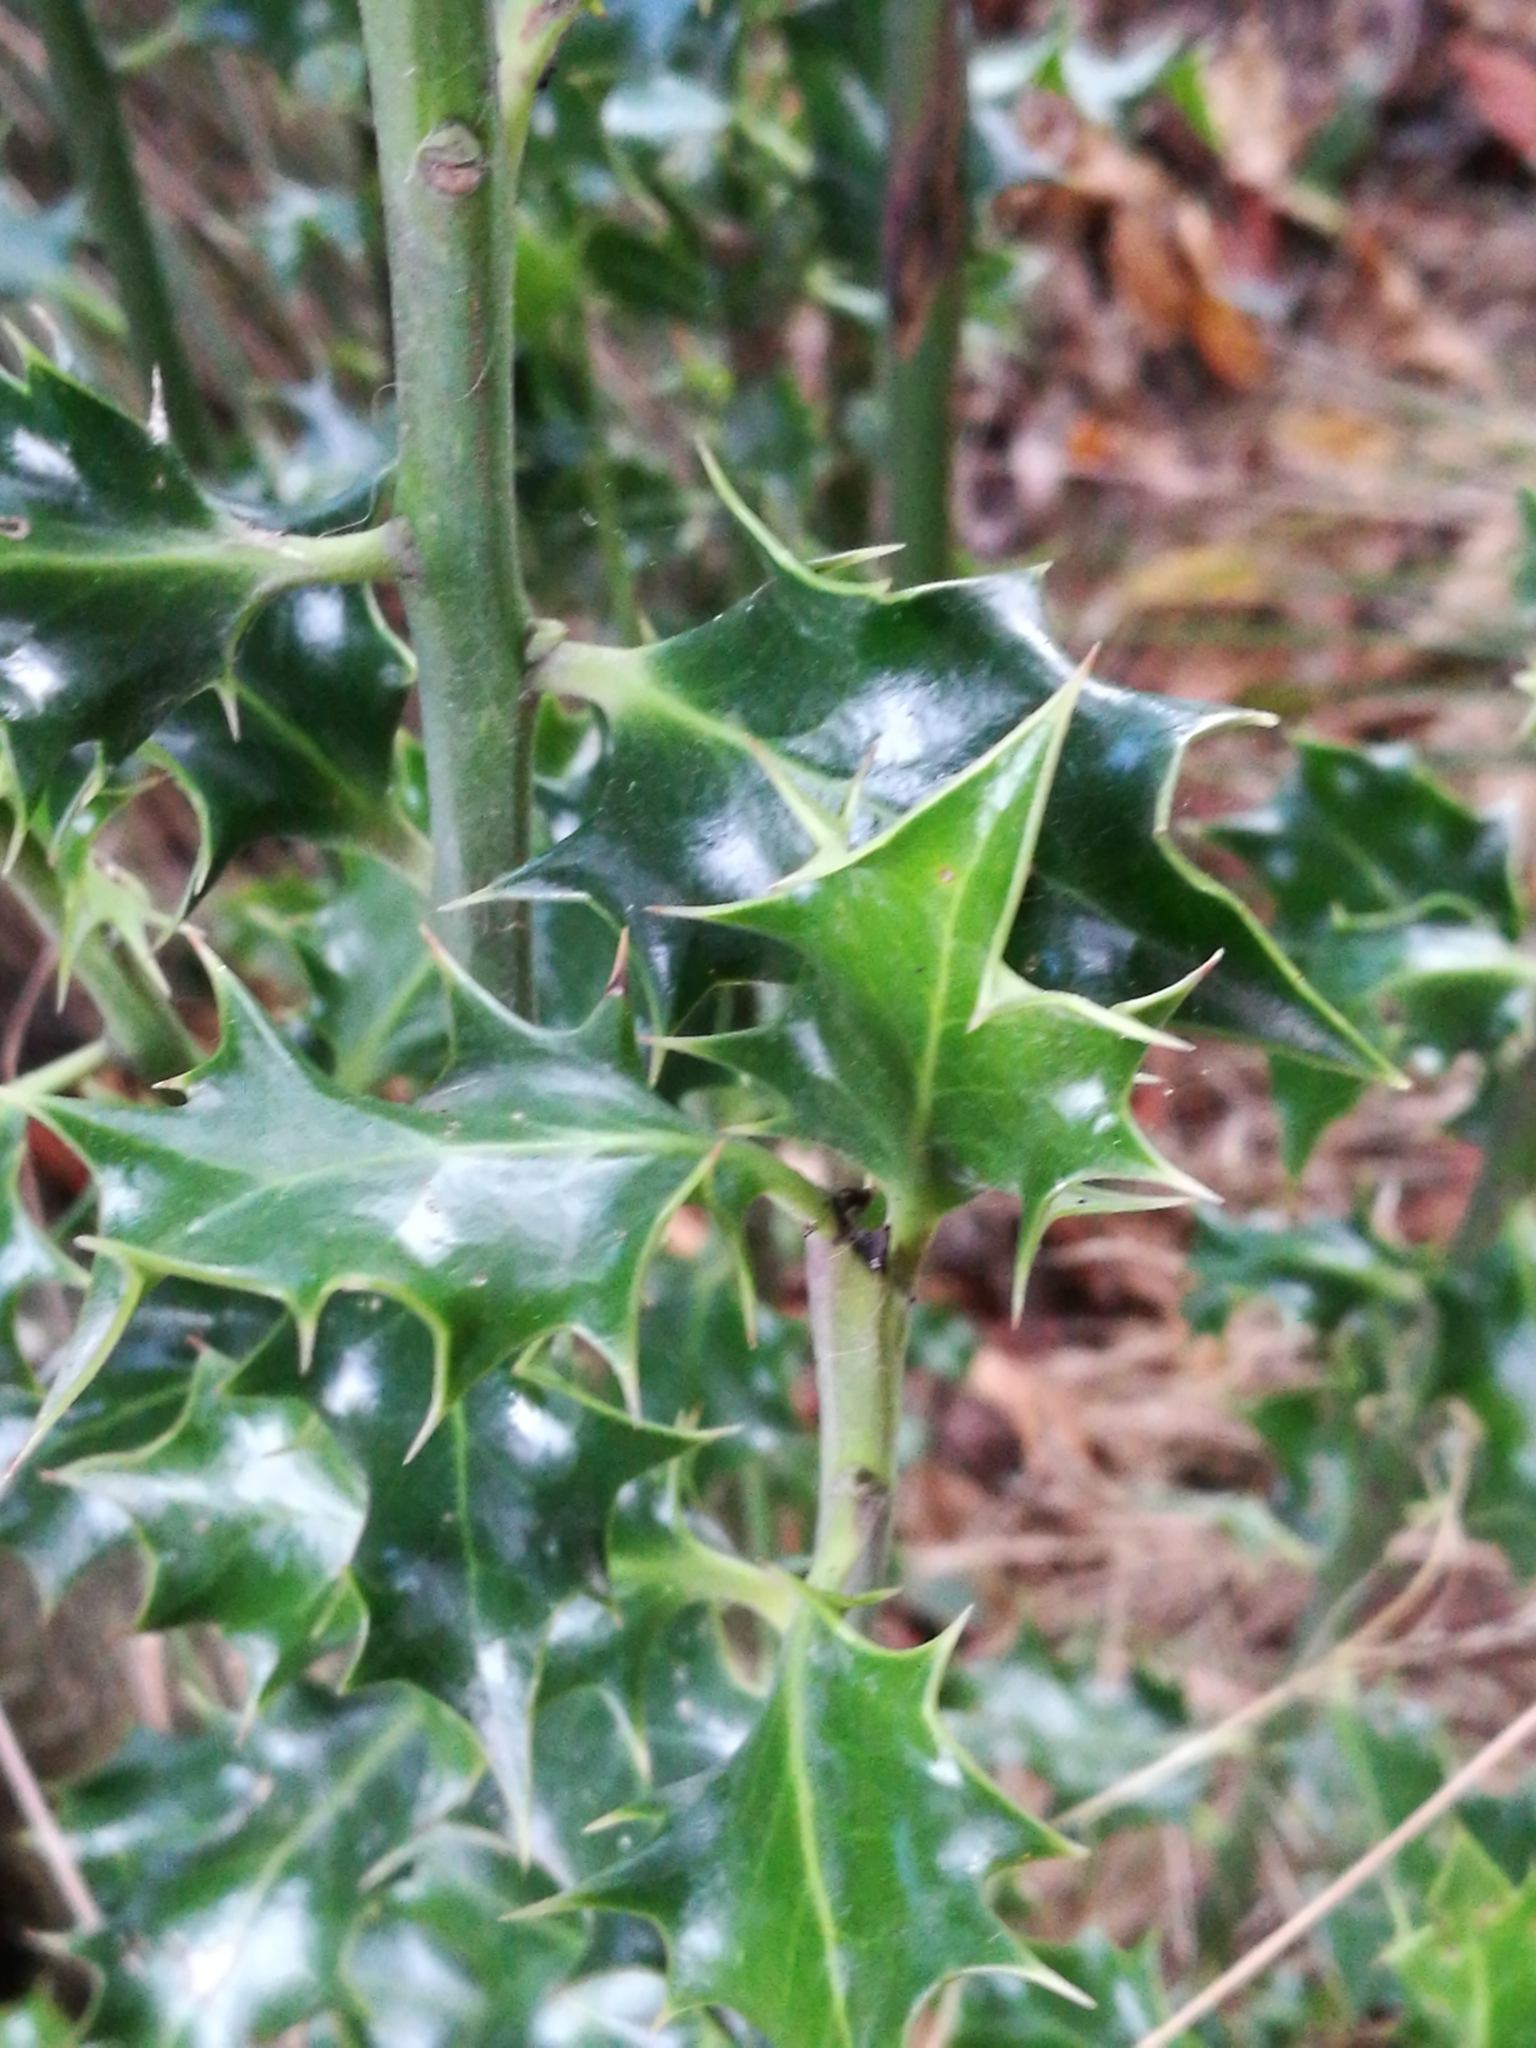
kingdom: Plantae
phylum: Tracheophyta
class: Magnoliopsida
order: Aquifoliales
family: Aquifoliaceae
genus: Ilex
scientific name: Ilex aquifolium
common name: English holly
